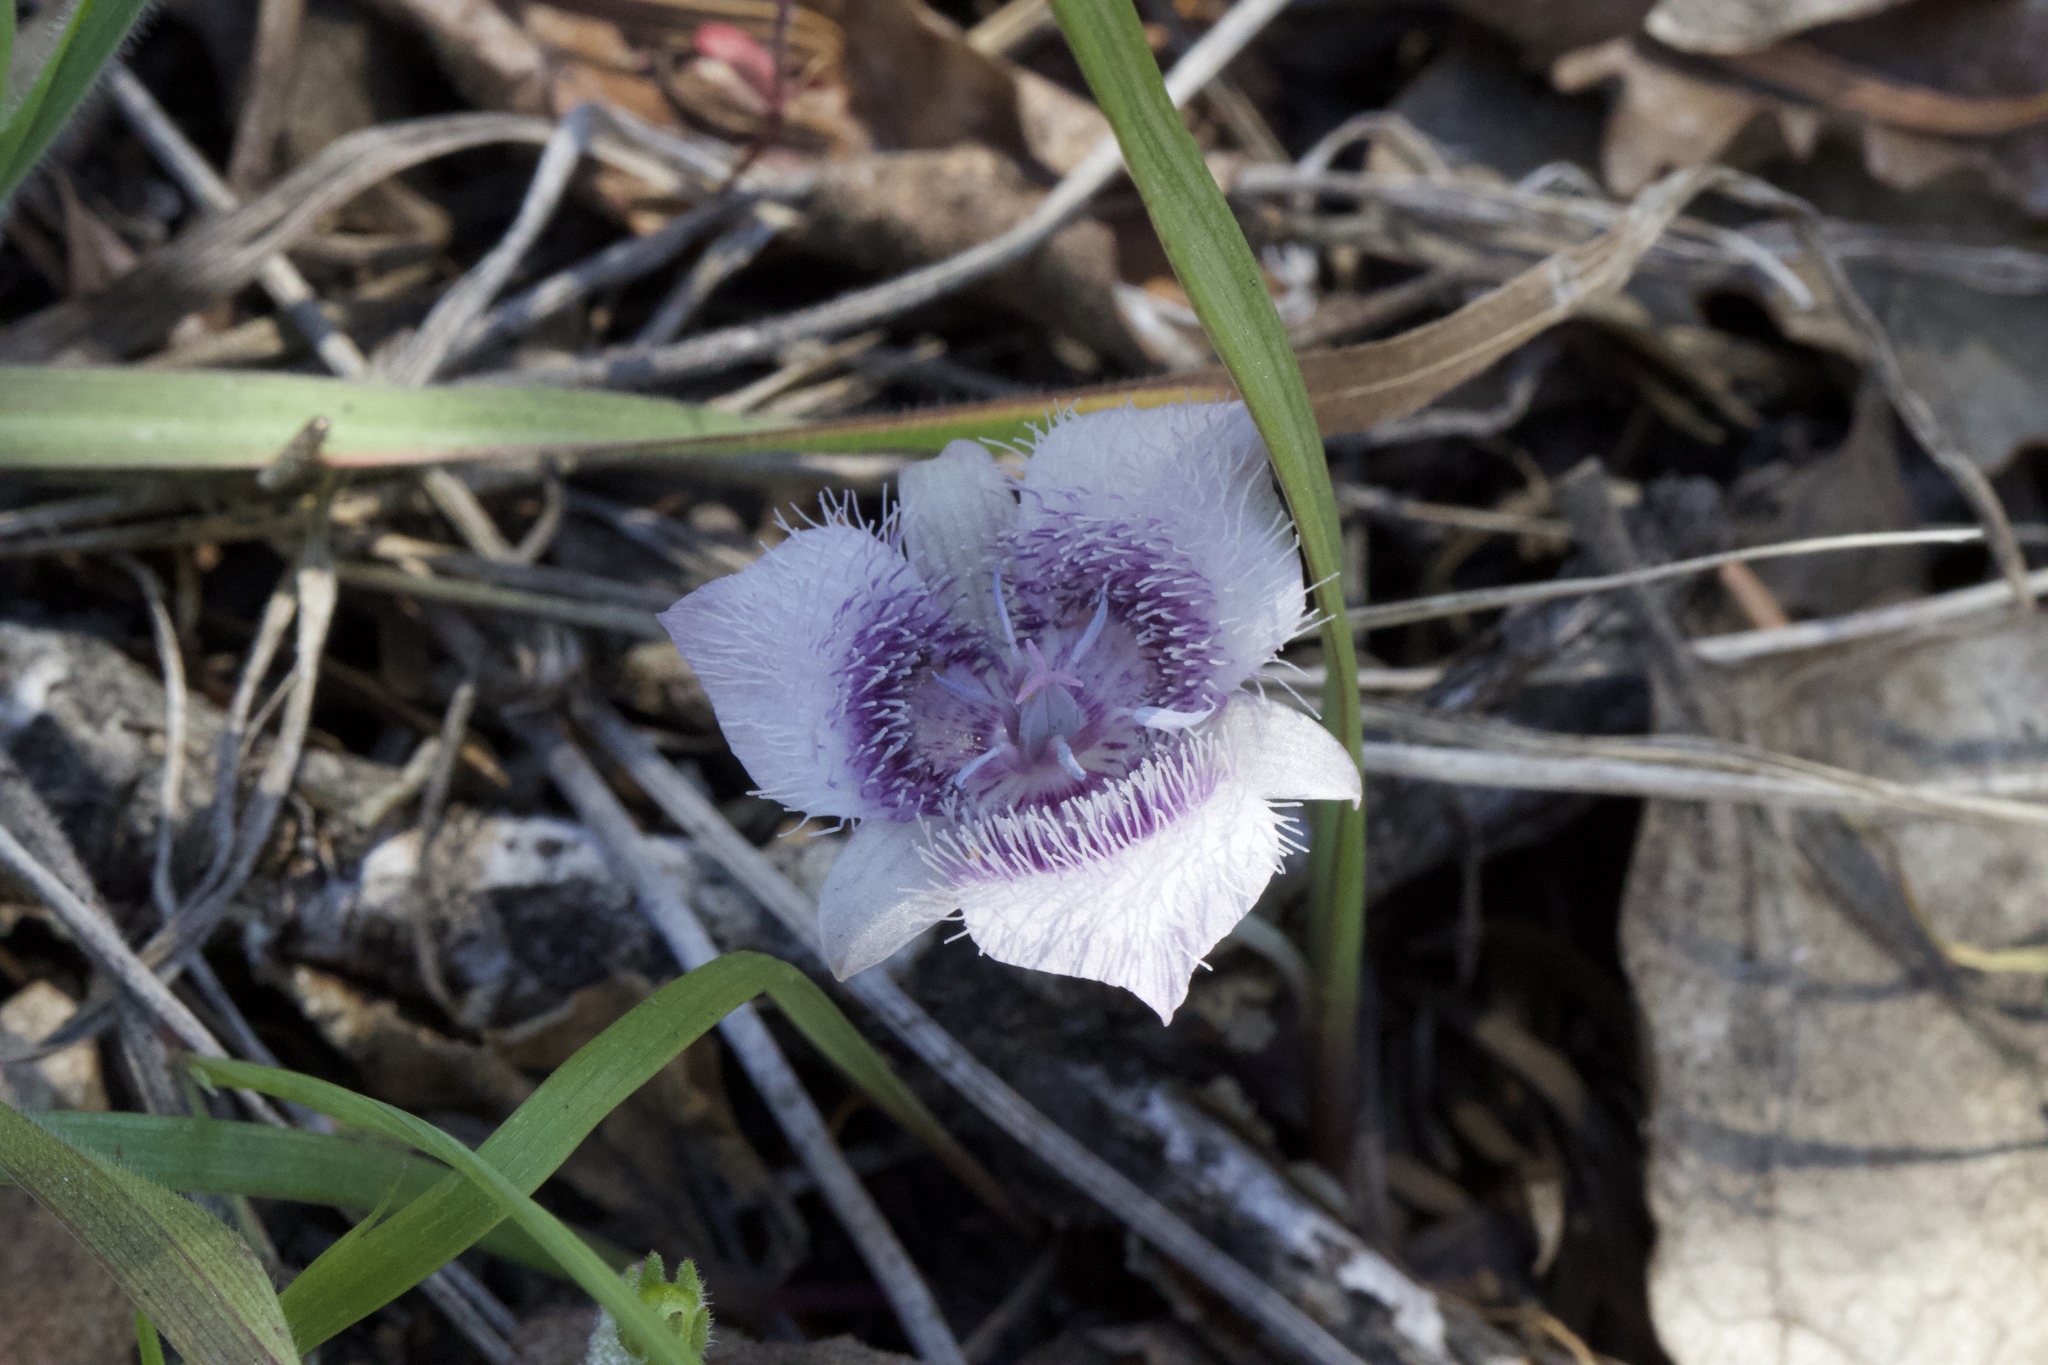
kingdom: Plantae
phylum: Tracheophyta
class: Liliopsida
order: Liliales
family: Liliaceae
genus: Calochortus
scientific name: Calochortus tolmiei
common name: Pussy-ears
